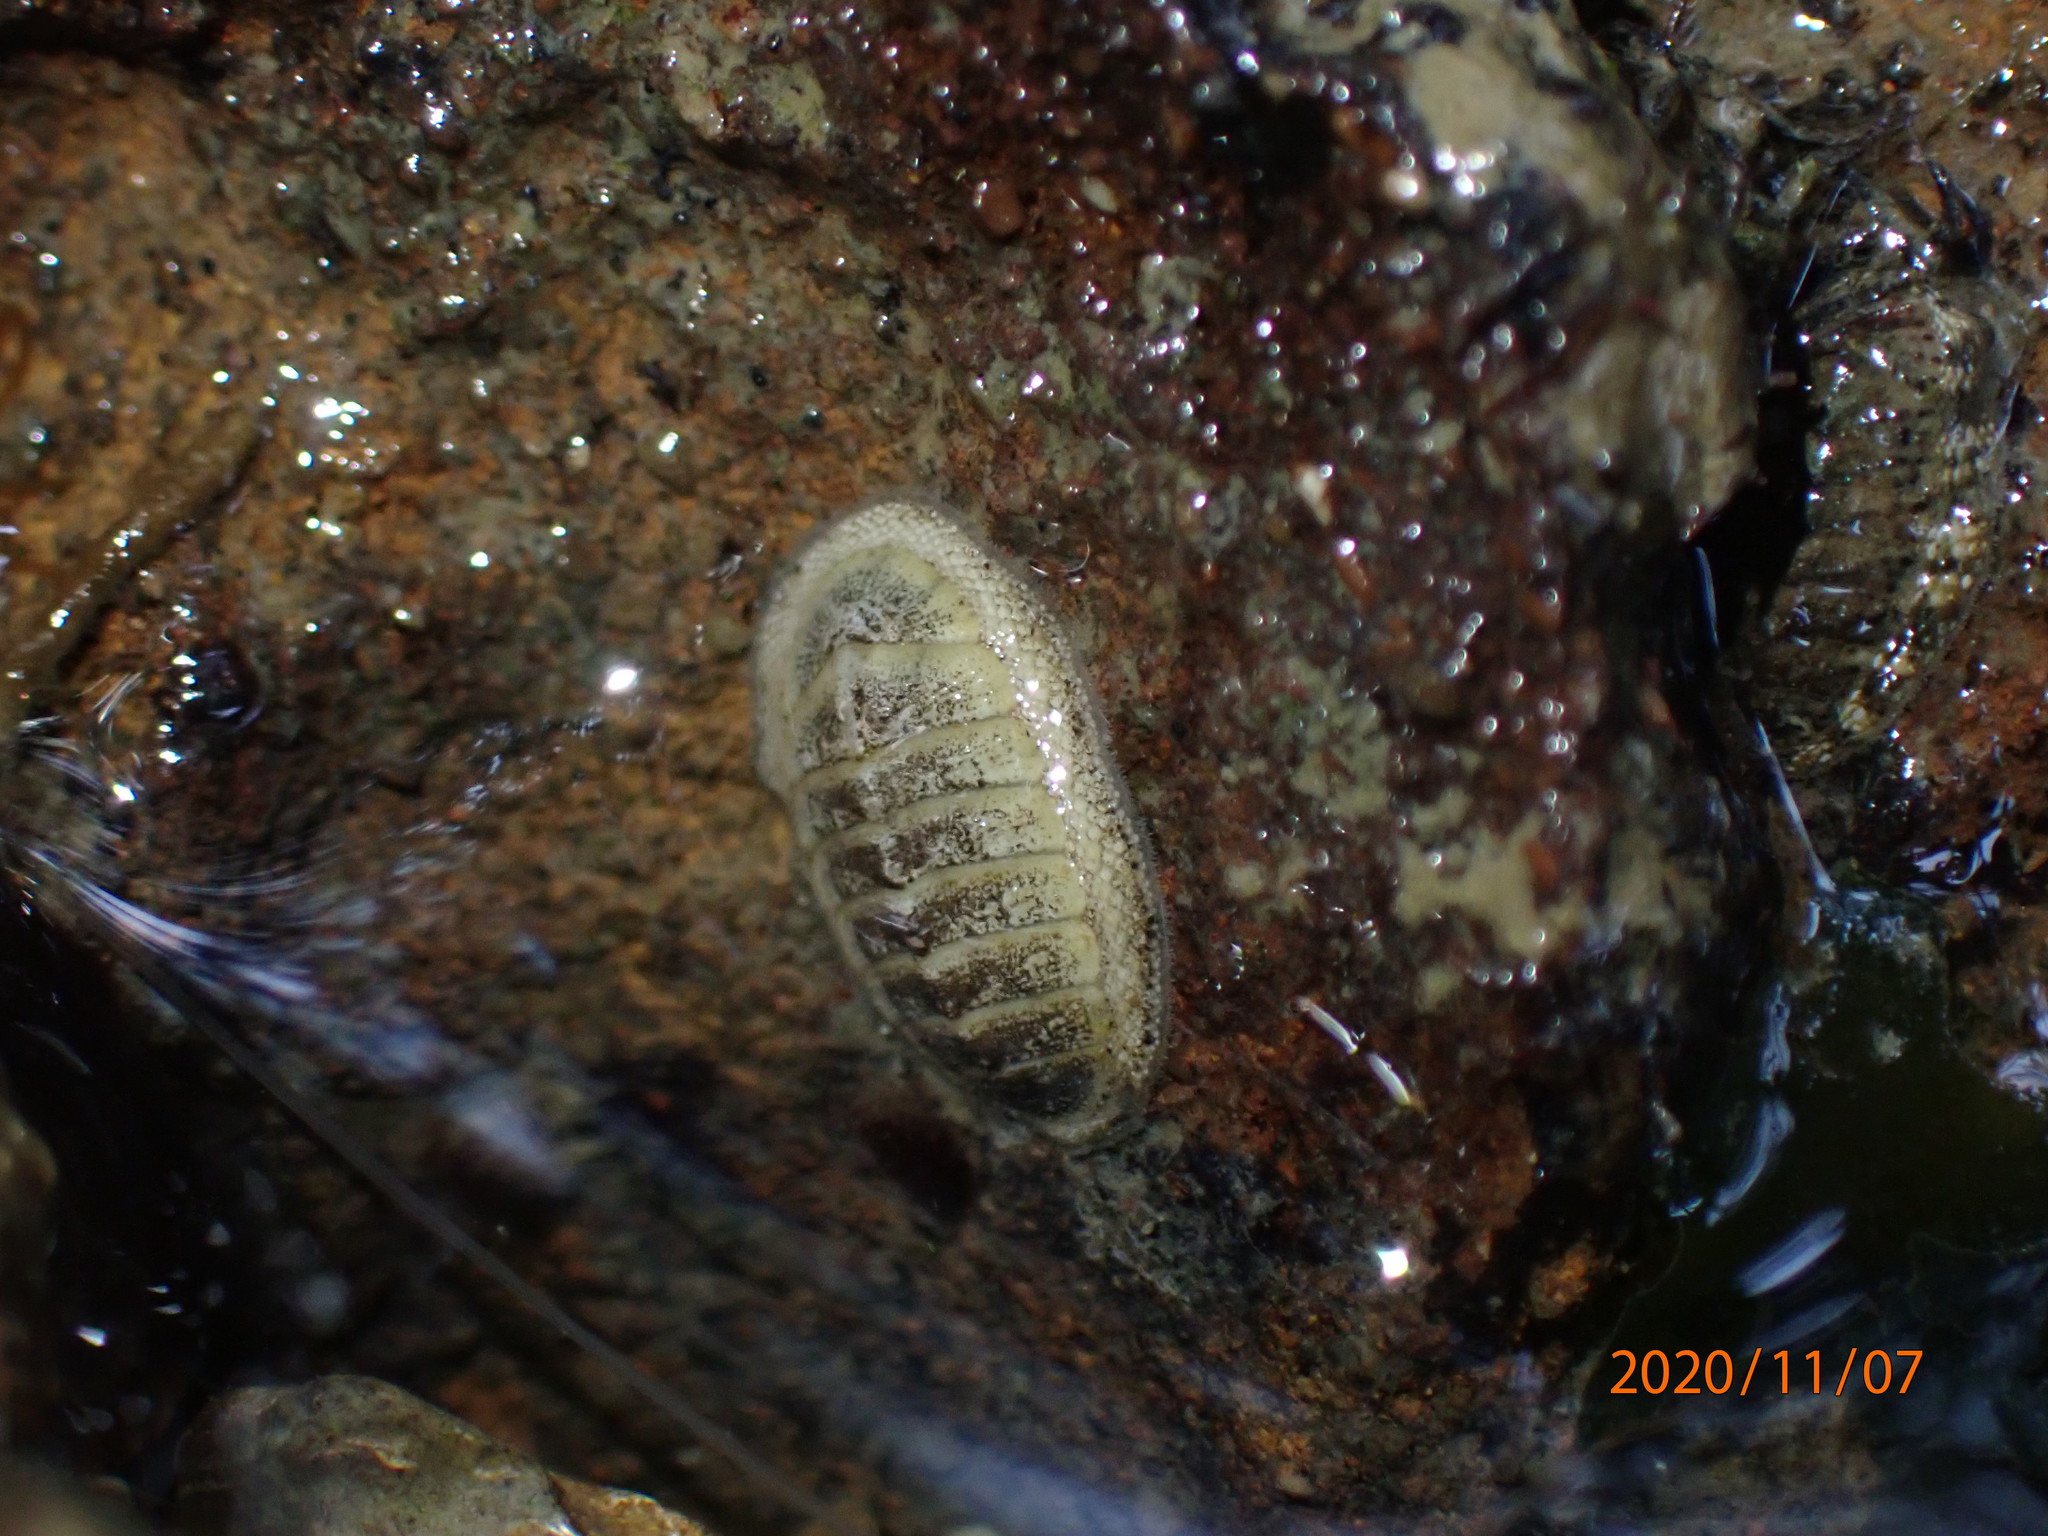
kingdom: Animalia
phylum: Mollusca
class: Polyplacophora
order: Chitonida
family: Chitonidae
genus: Chiton
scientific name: Chiton glaucus
